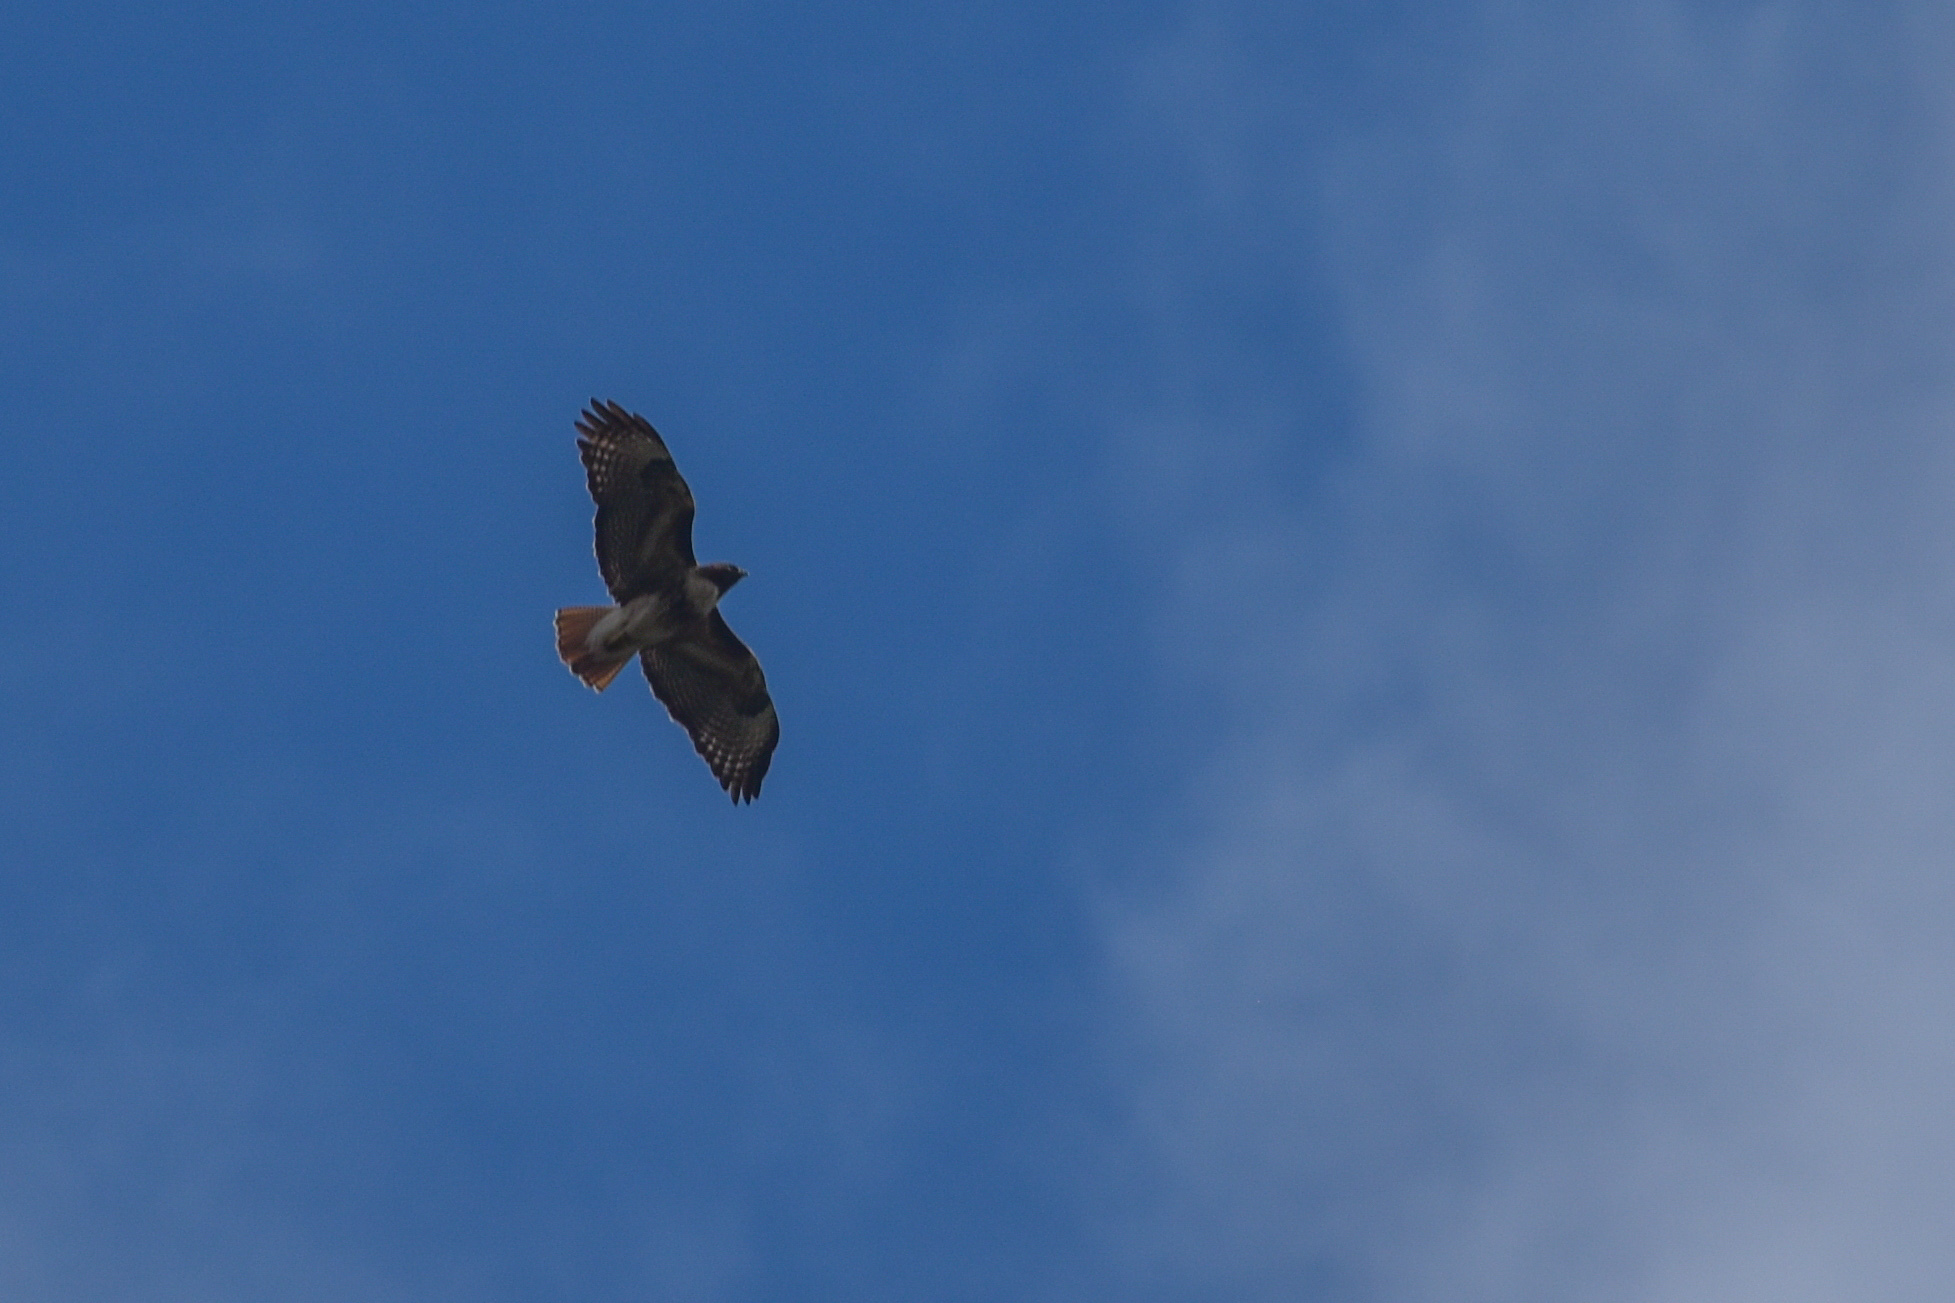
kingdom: Animalia
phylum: Chordata
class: Aves
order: Accipitriformes
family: Accipitridae
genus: Buteo
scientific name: Buteo jamaicensis
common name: Red-tailed hawk
